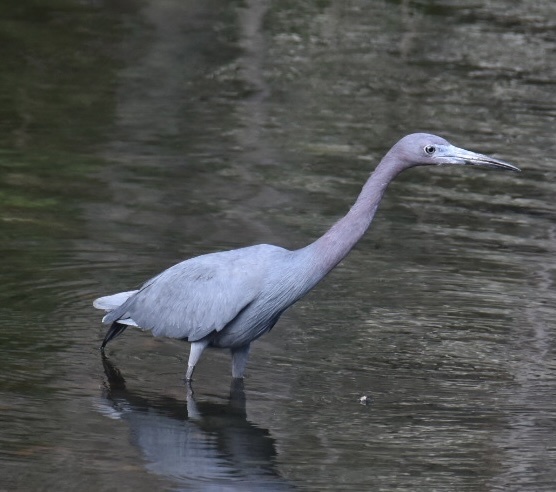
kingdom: Animalia
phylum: Chordata
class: Aves
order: Pelecaniformes
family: Ardeidae
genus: Egretta
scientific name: Egretta caerulea
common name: Little blue heron
